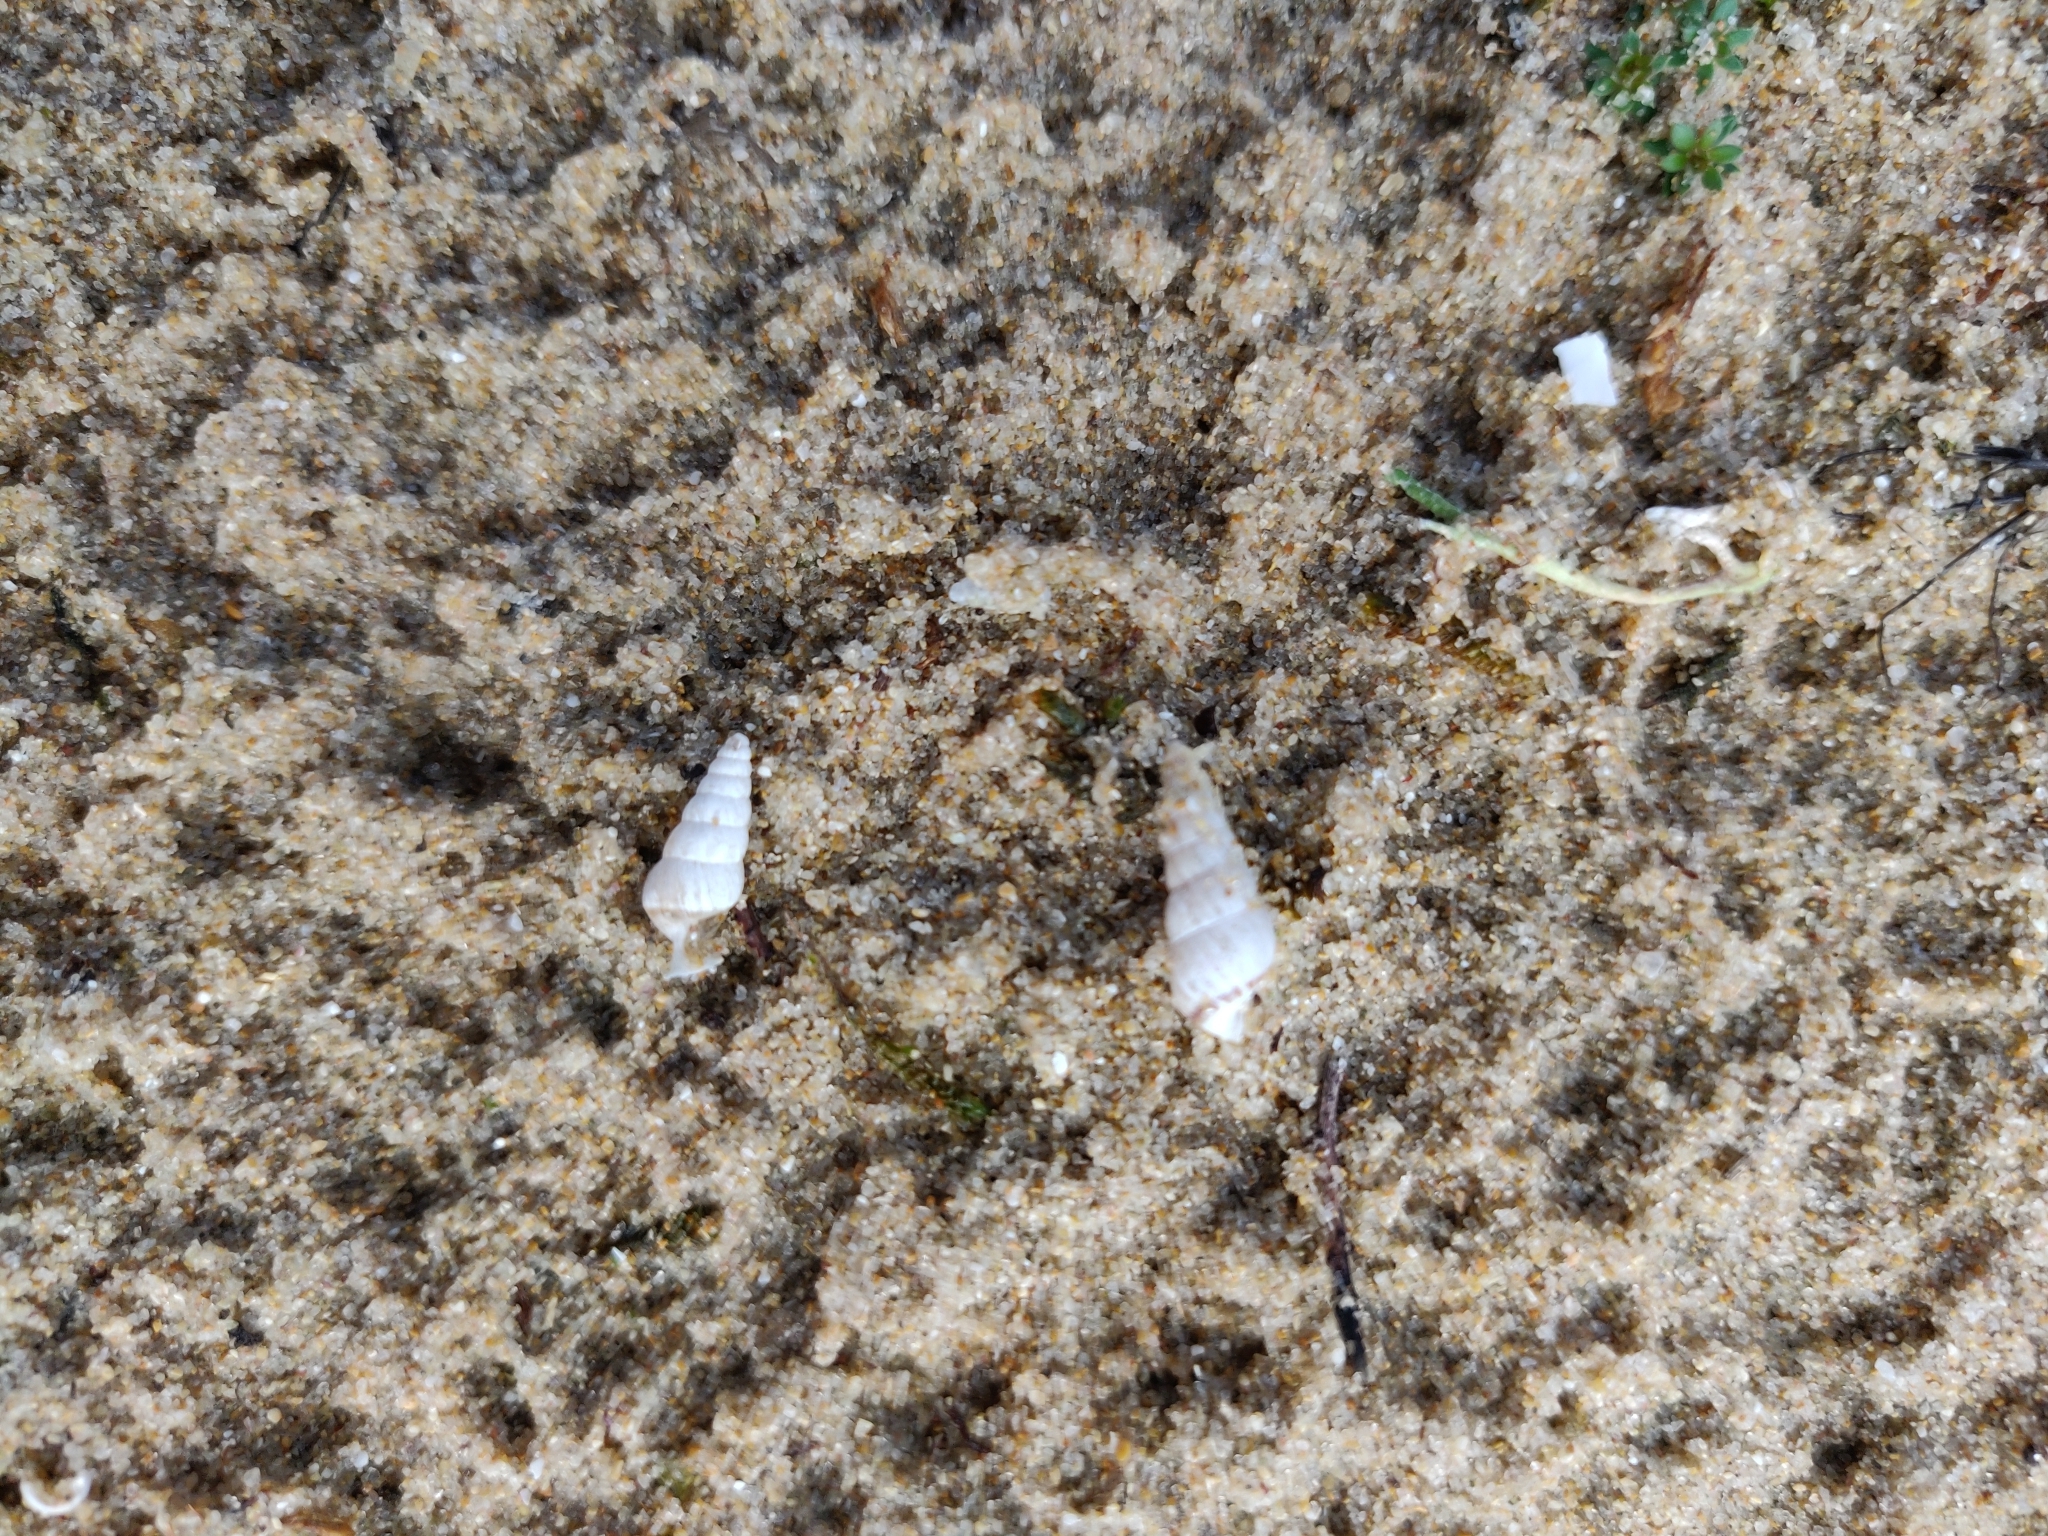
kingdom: Animalia
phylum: Mollusca
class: Gastropoda
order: Stylommatophora
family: Geomitridae
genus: Cochlicella
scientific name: Cochlicella acuta
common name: Pointed snail
